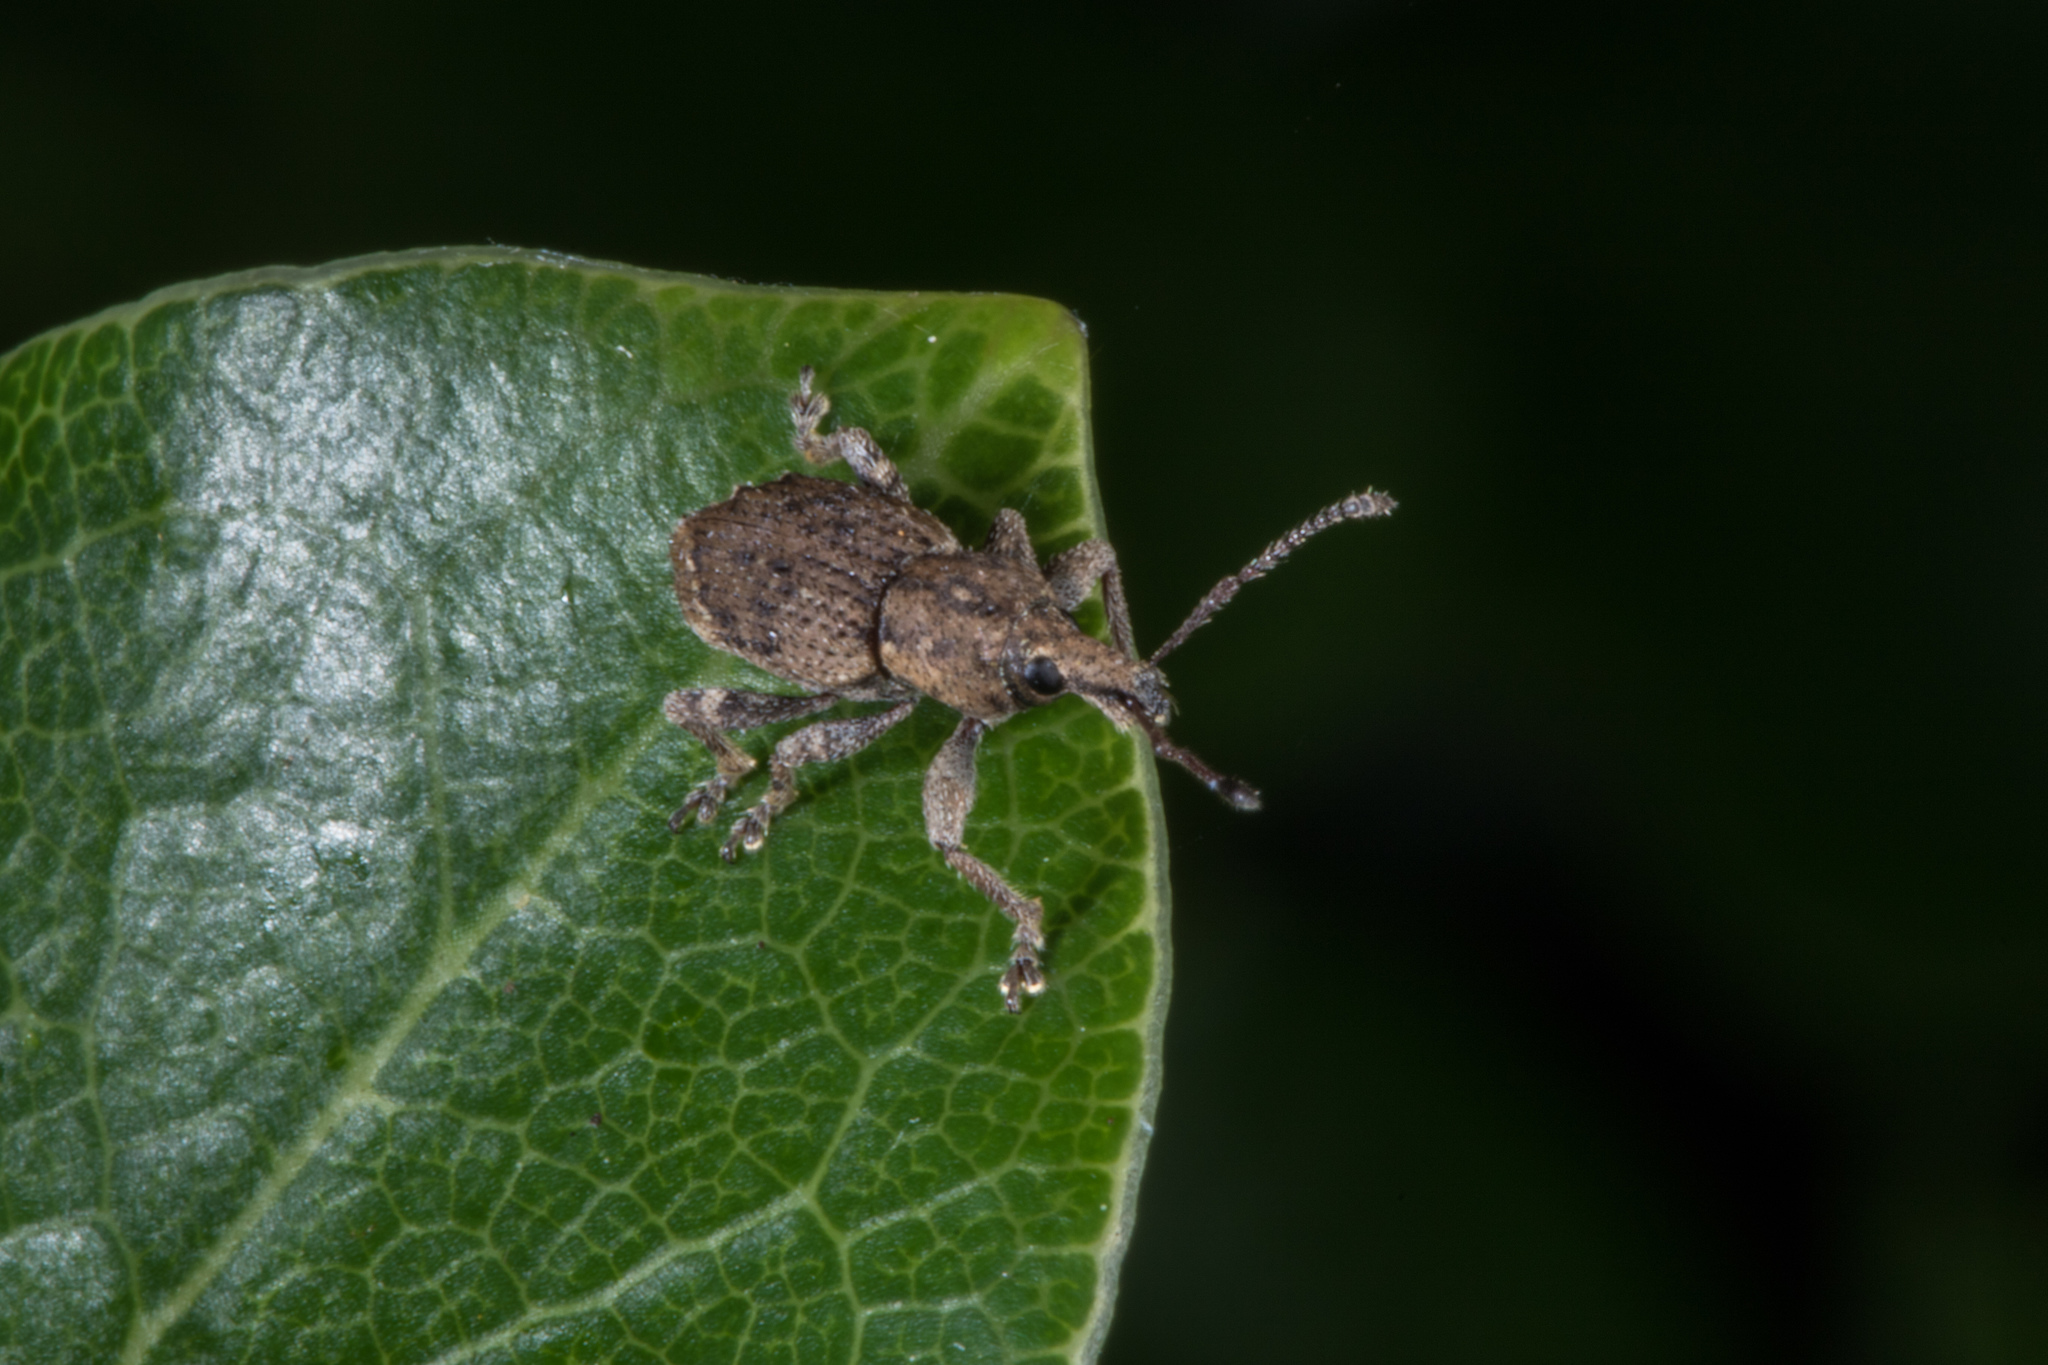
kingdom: Animalia
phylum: Arthropoda
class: Insecta
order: Coleoptera
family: Curculionidae
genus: Chalepistes
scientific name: Chalepistes compressus
